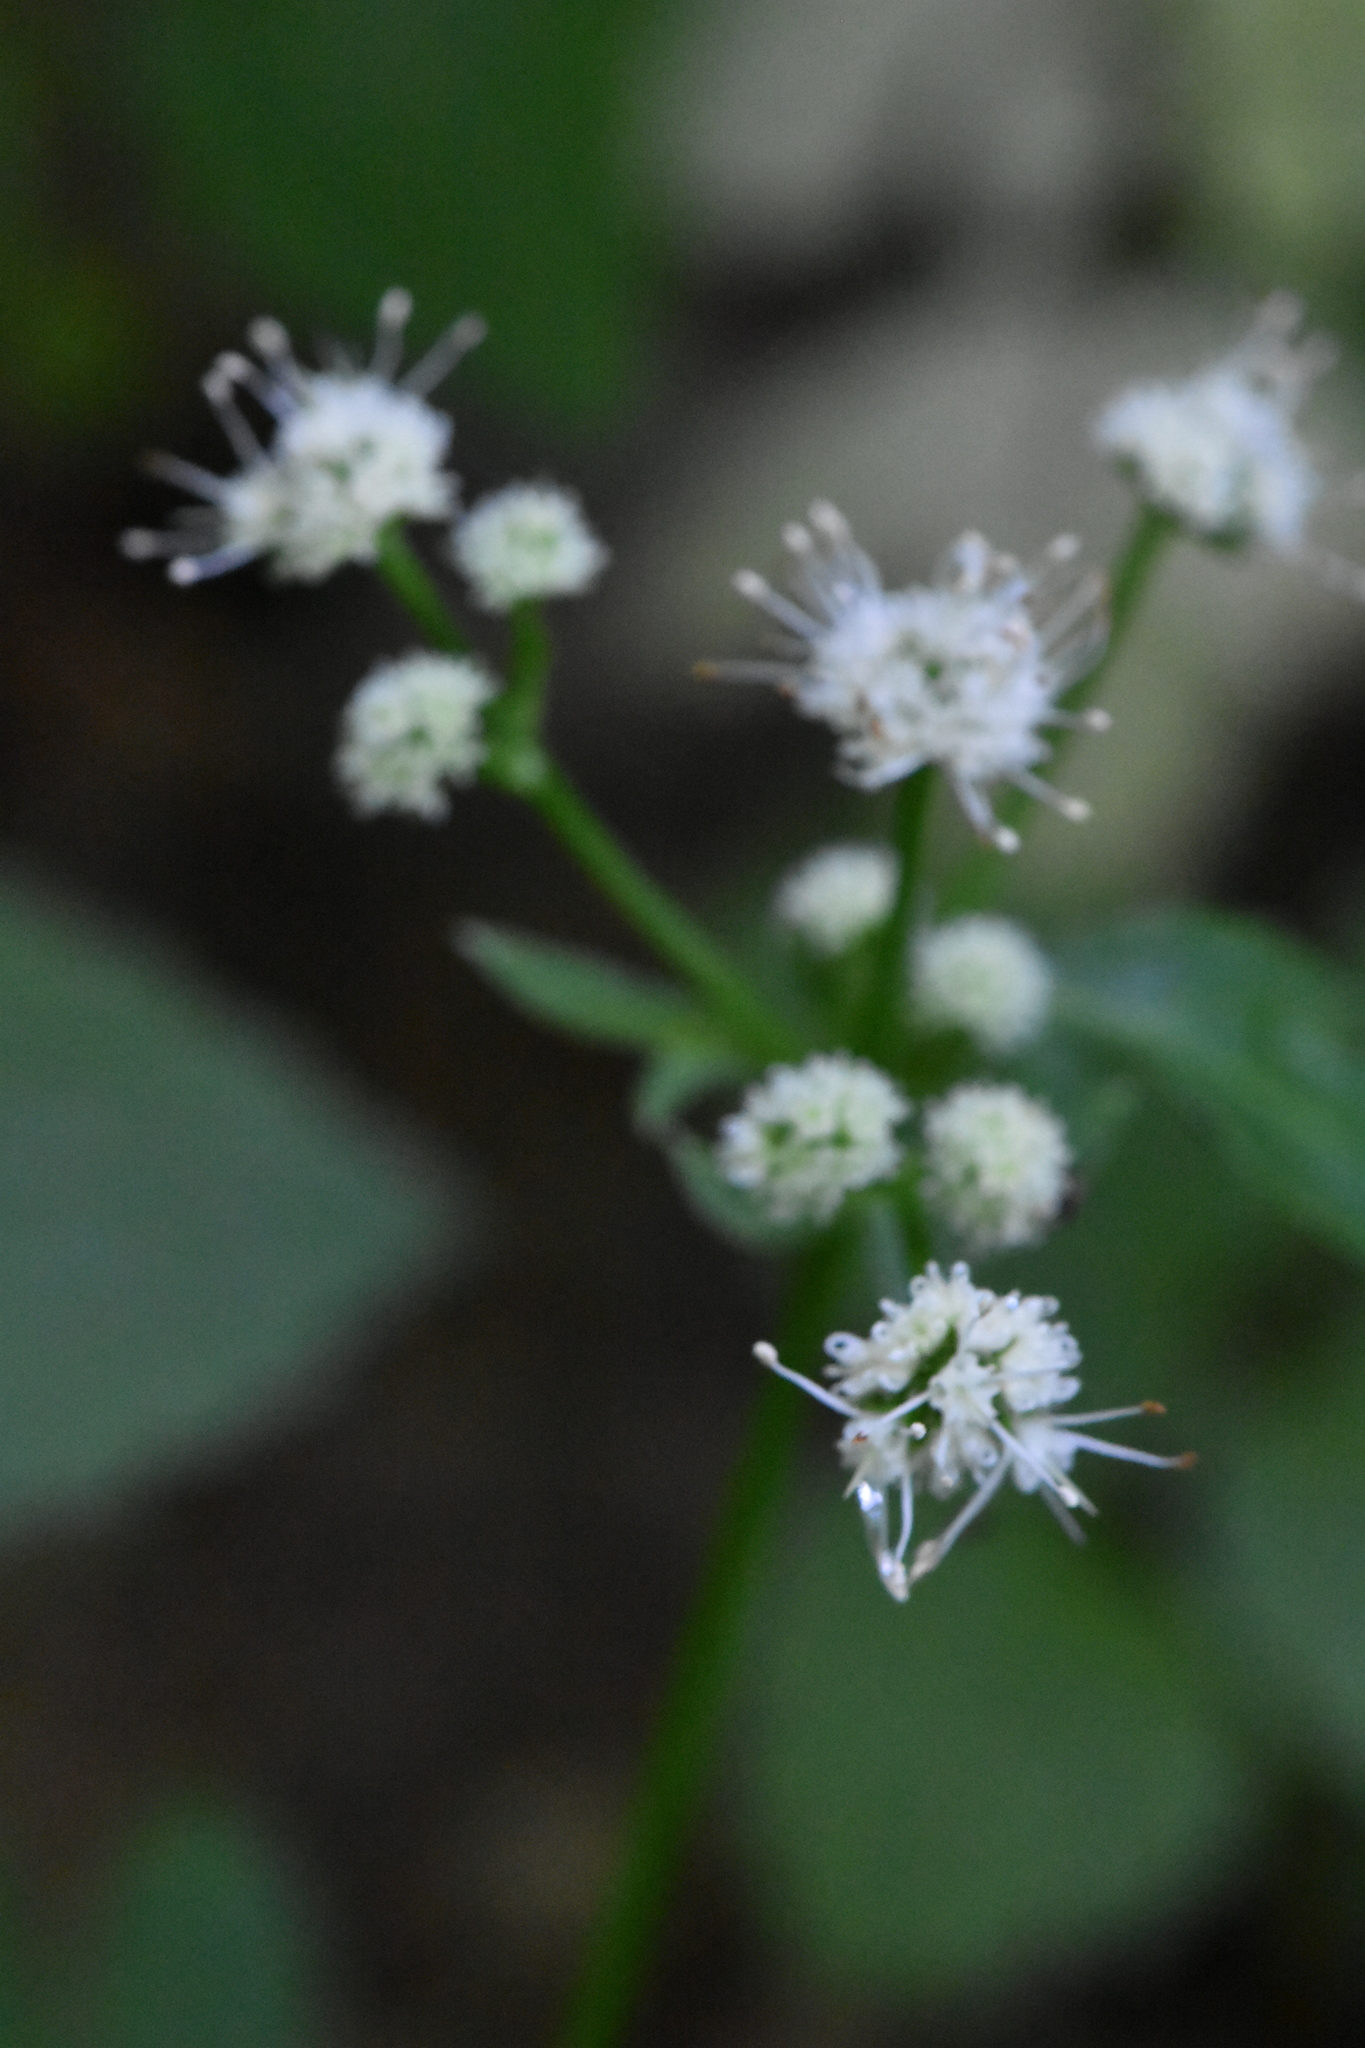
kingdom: Plantae
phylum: Tracheophyta
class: Magnoliopsida
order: Apiales
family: Apiaceae
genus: Sanicula
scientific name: Sanicula europaea
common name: Sanicle
